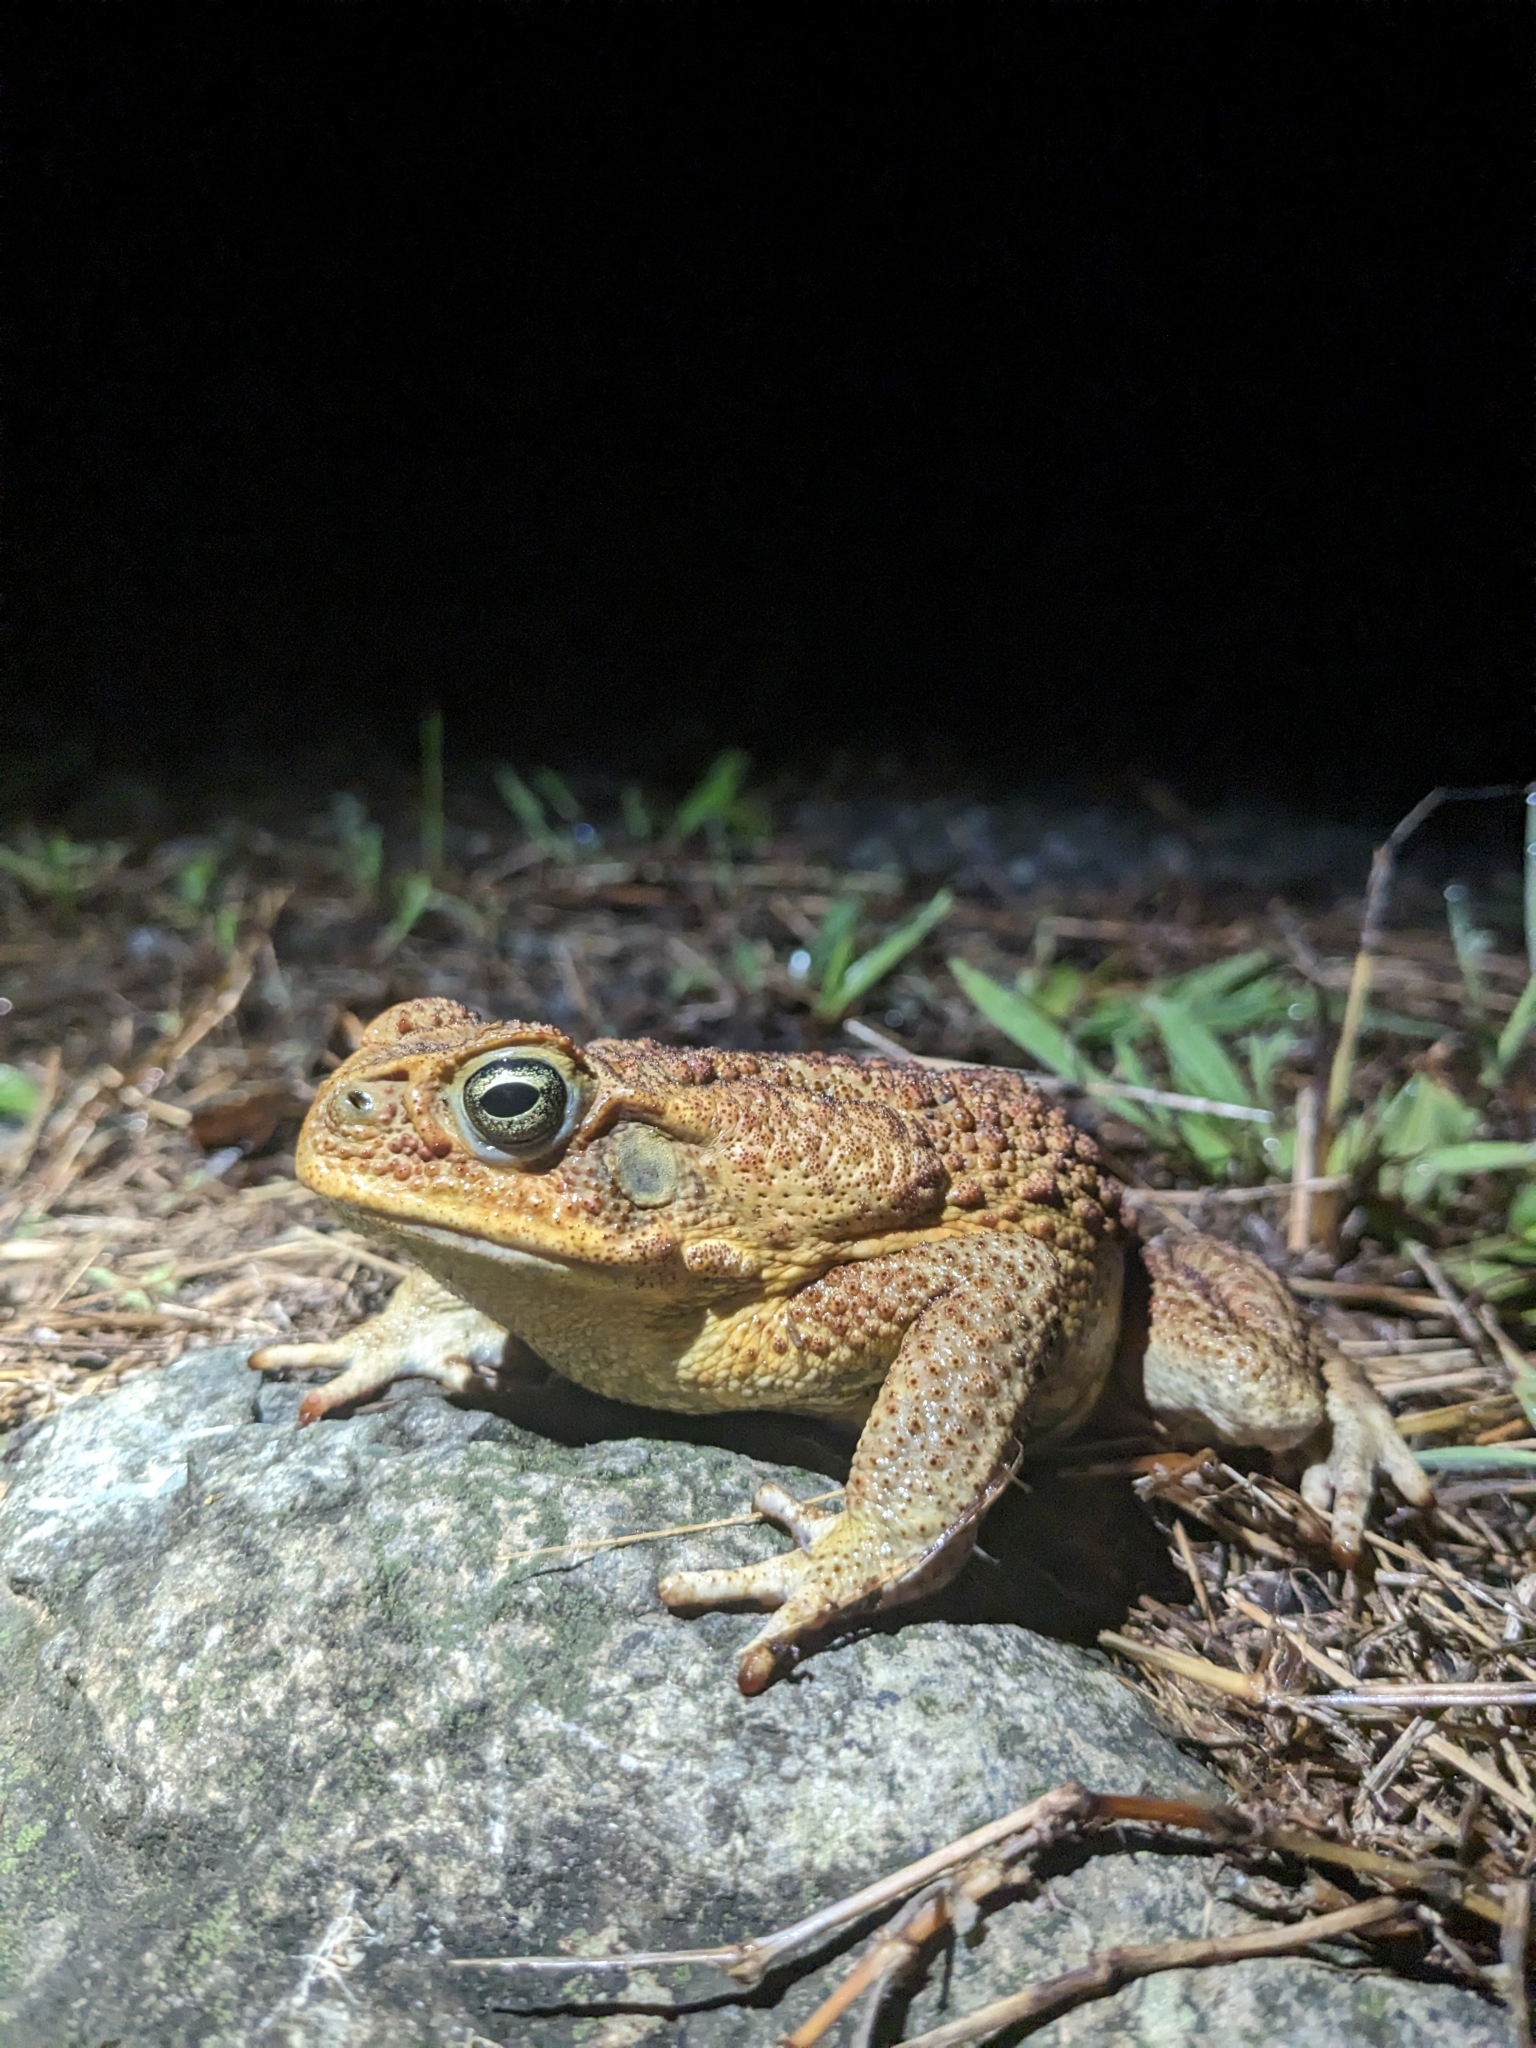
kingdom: Animalia
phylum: Chordata
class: Amphibia
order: Anura
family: Bufonidae
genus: Rhinella
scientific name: Rhinella marina
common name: Cane toad
